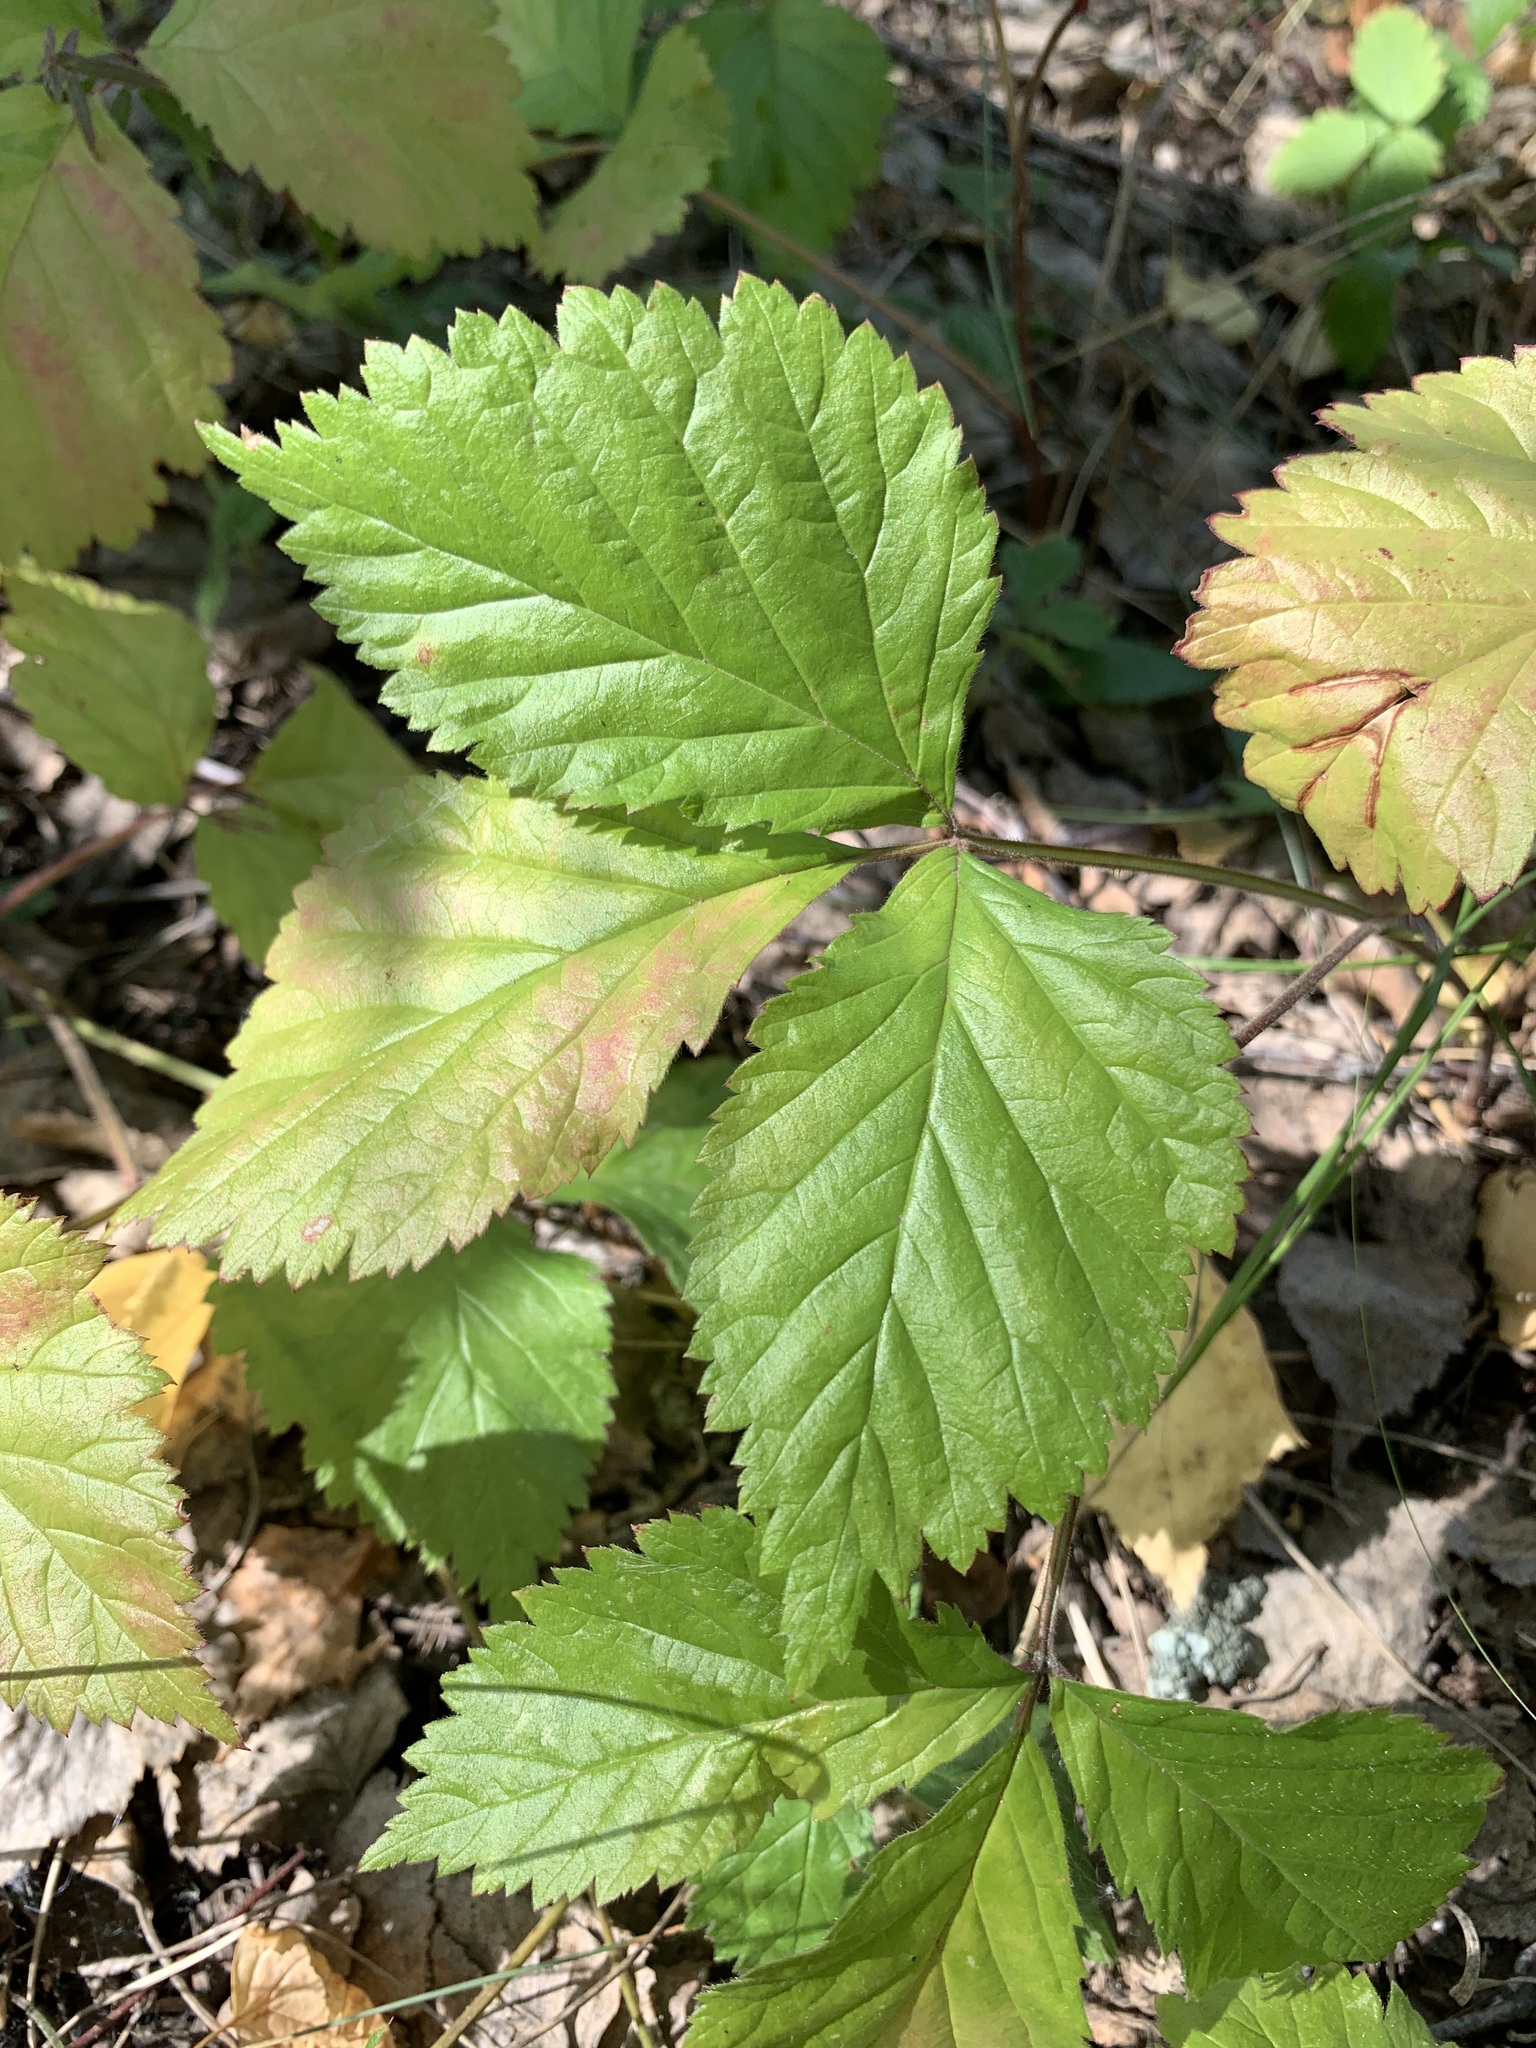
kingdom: Plantae
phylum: Tracheophyta
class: Magnoliopsida
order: Rosales
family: Rosaceae
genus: Rubus
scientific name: Rubus saxatilis
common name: Stone bramble
